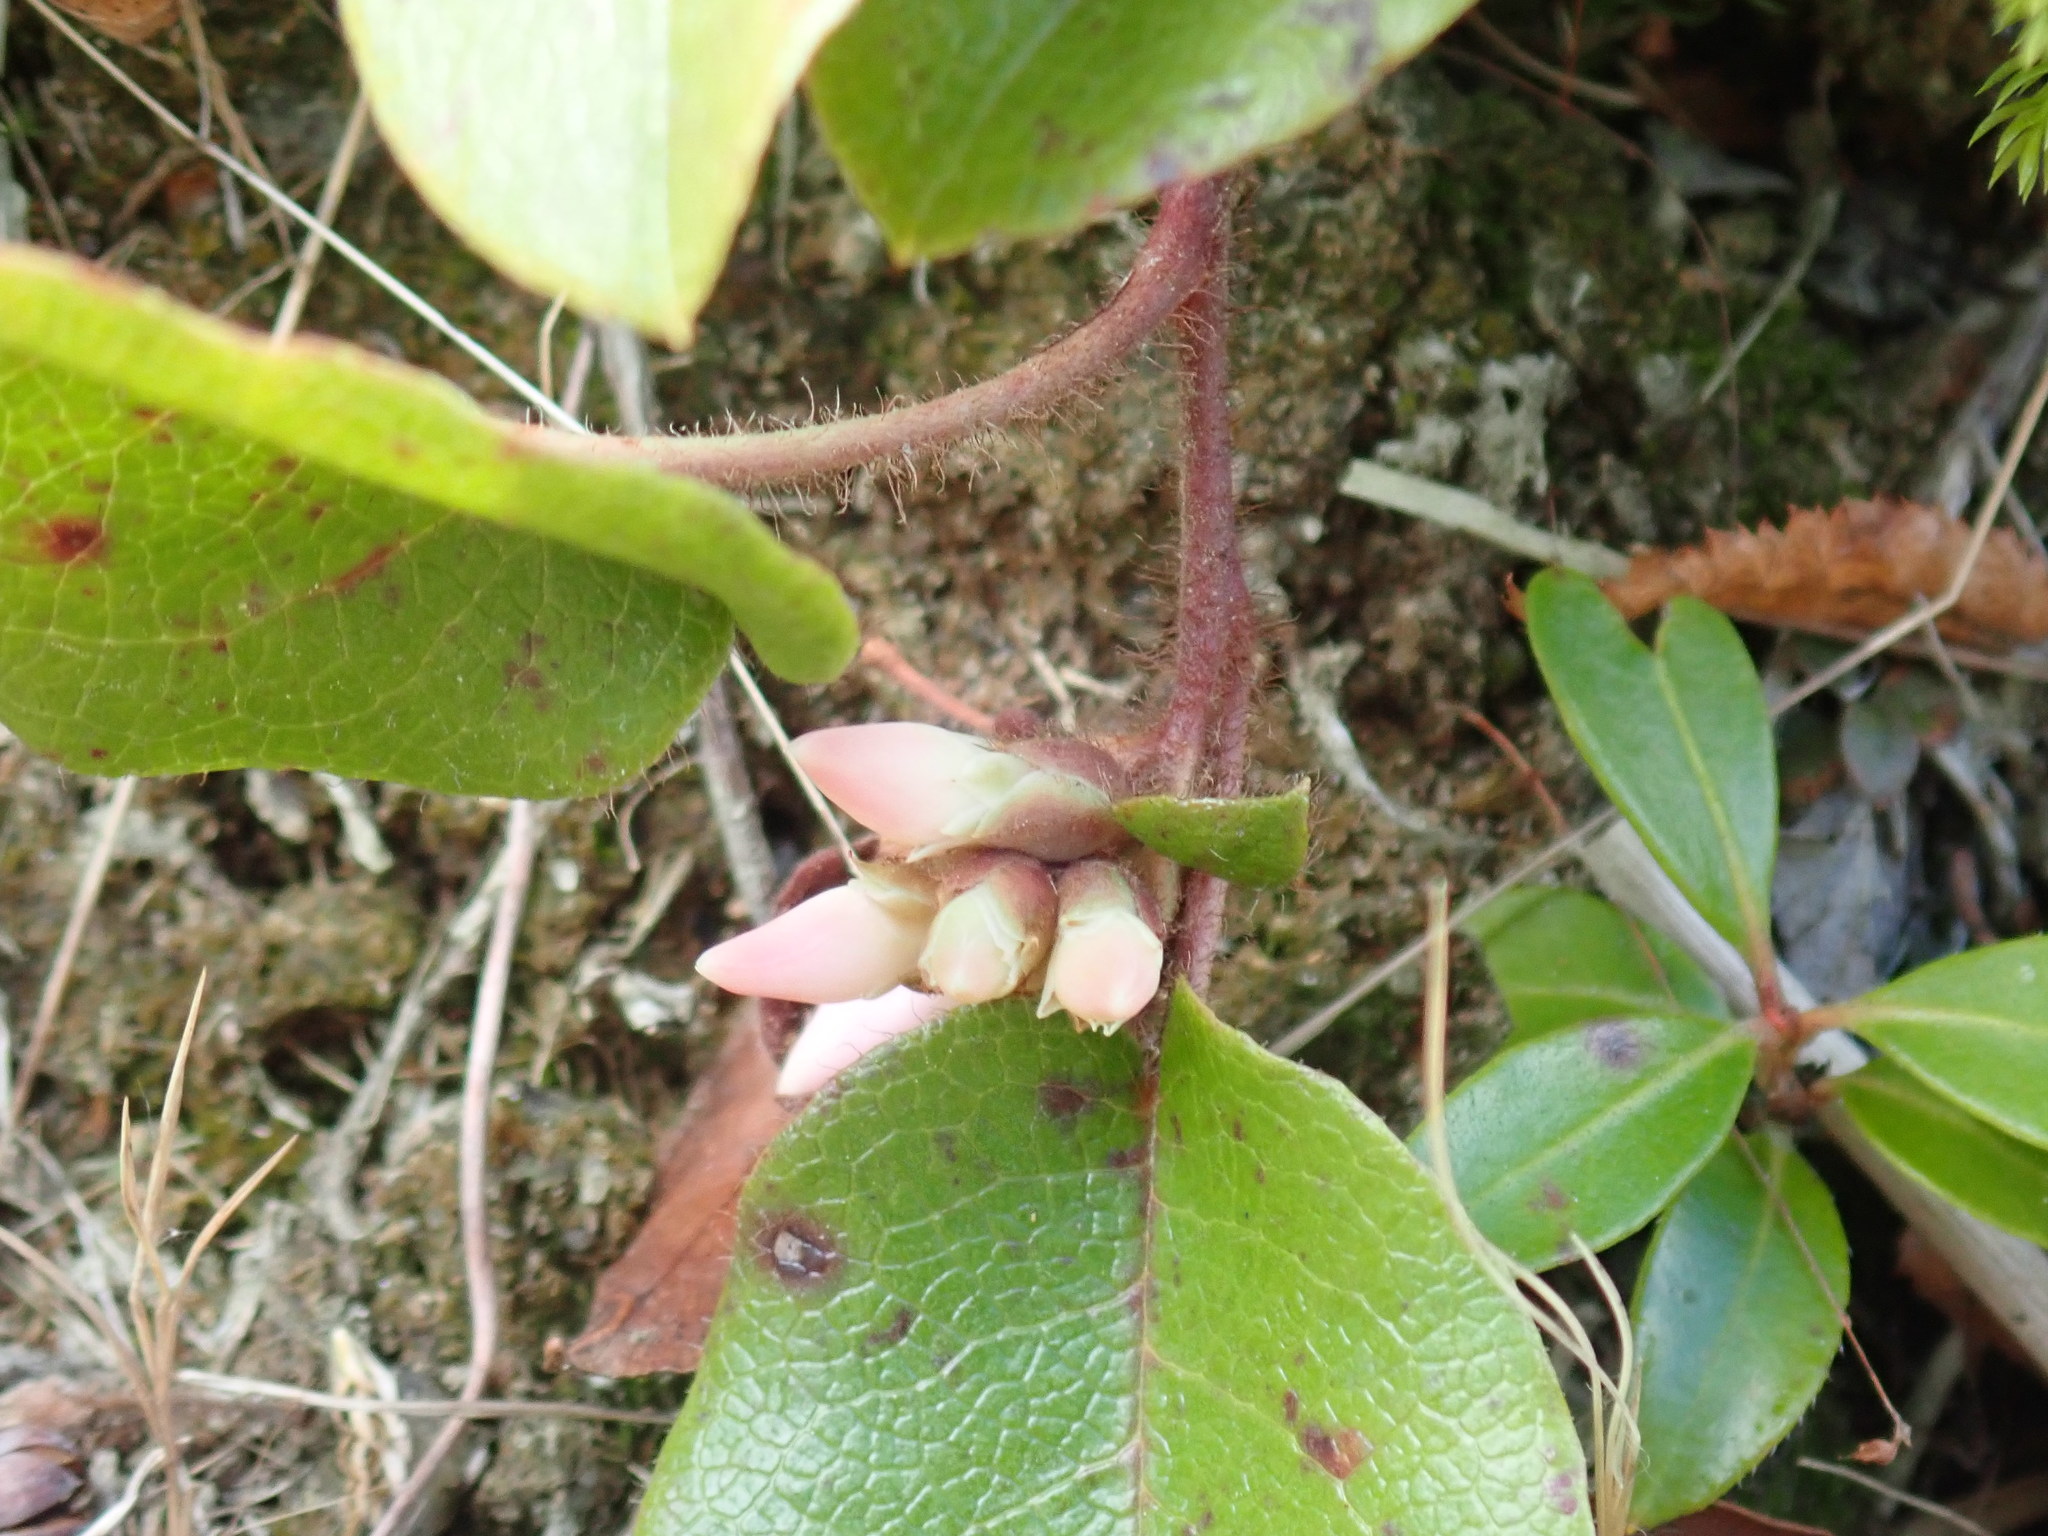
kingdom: Plantae
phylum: Tracheophyta
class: Magnoliopsida
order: Ericales
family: Ericaceae
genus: Epigaea
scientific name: Epigaea repens
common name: Gravelroot
